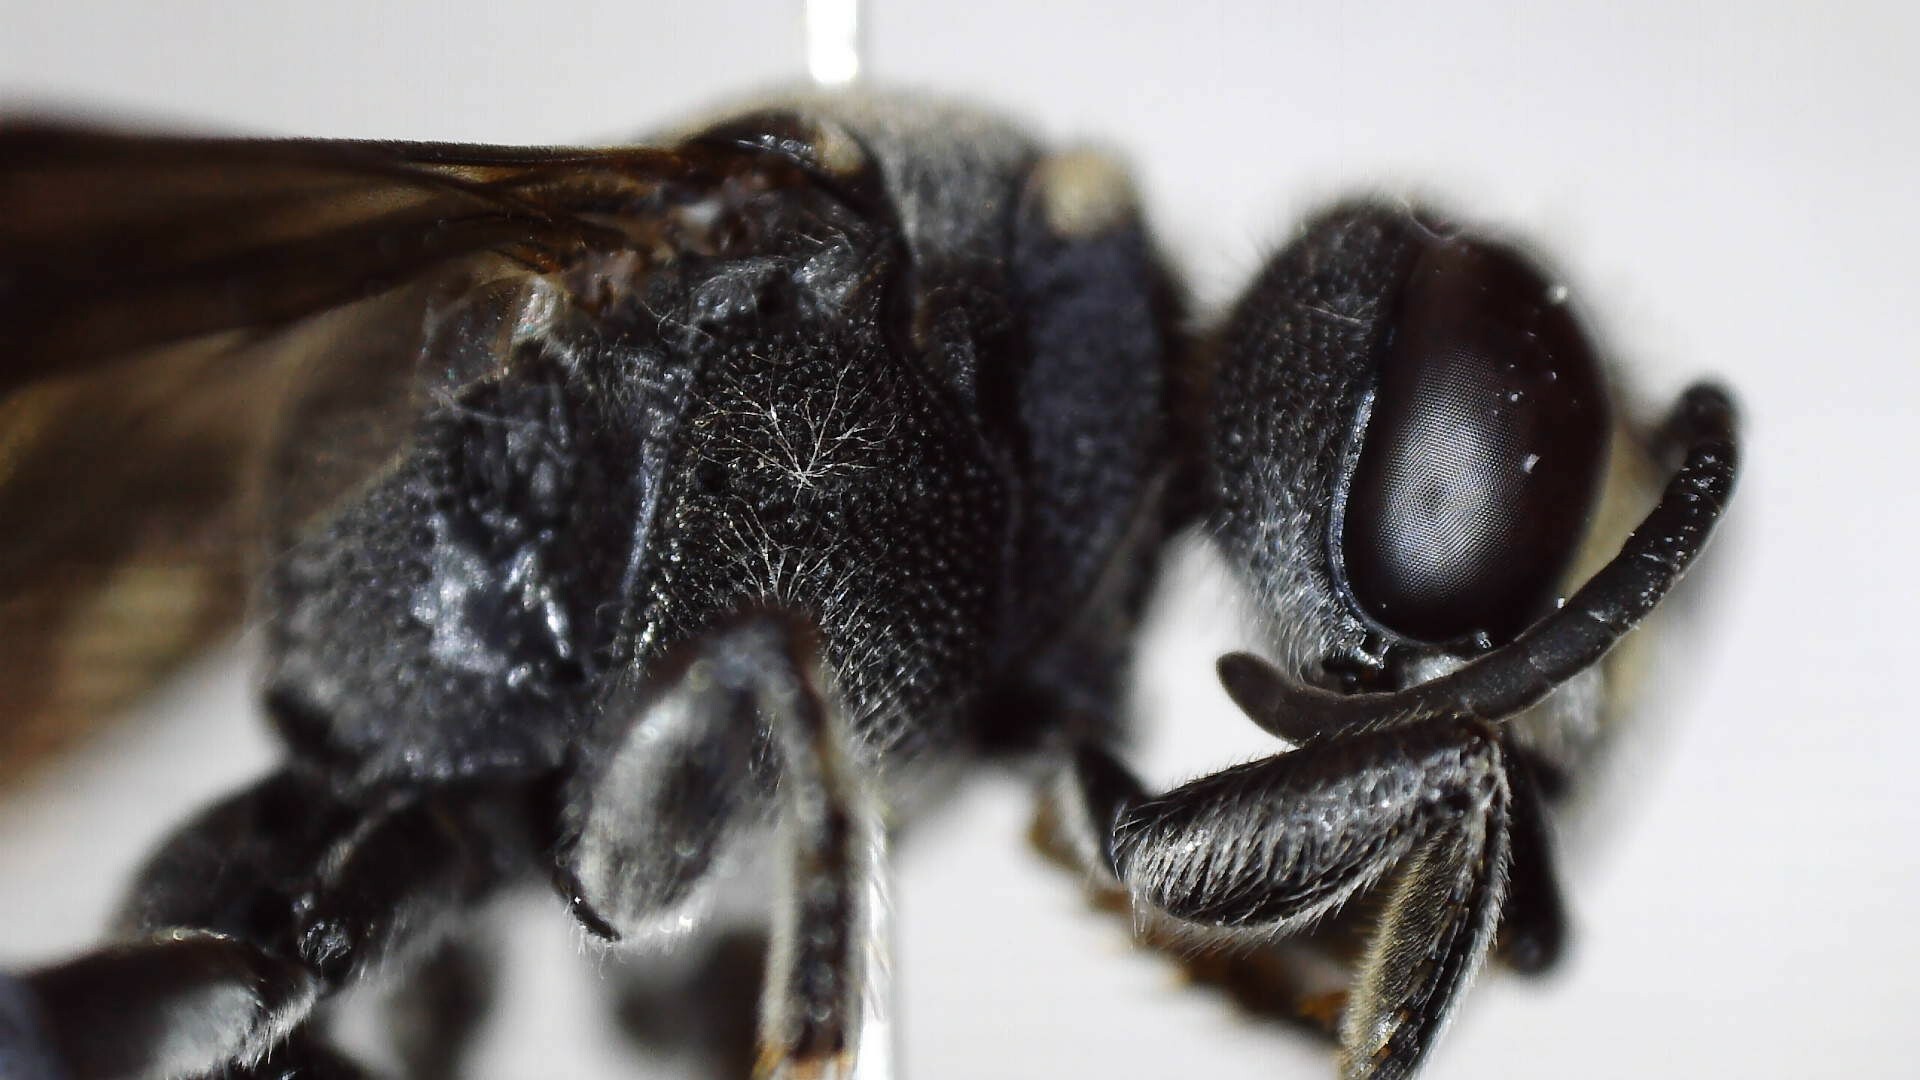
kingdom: Animalia
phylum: Arthropoda
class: Insecta
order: Hymenoptera
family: Crabronidae
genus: Cerceris
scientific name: Cerceris fumipennis
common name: Smokey-winged beetle bandit wasp
